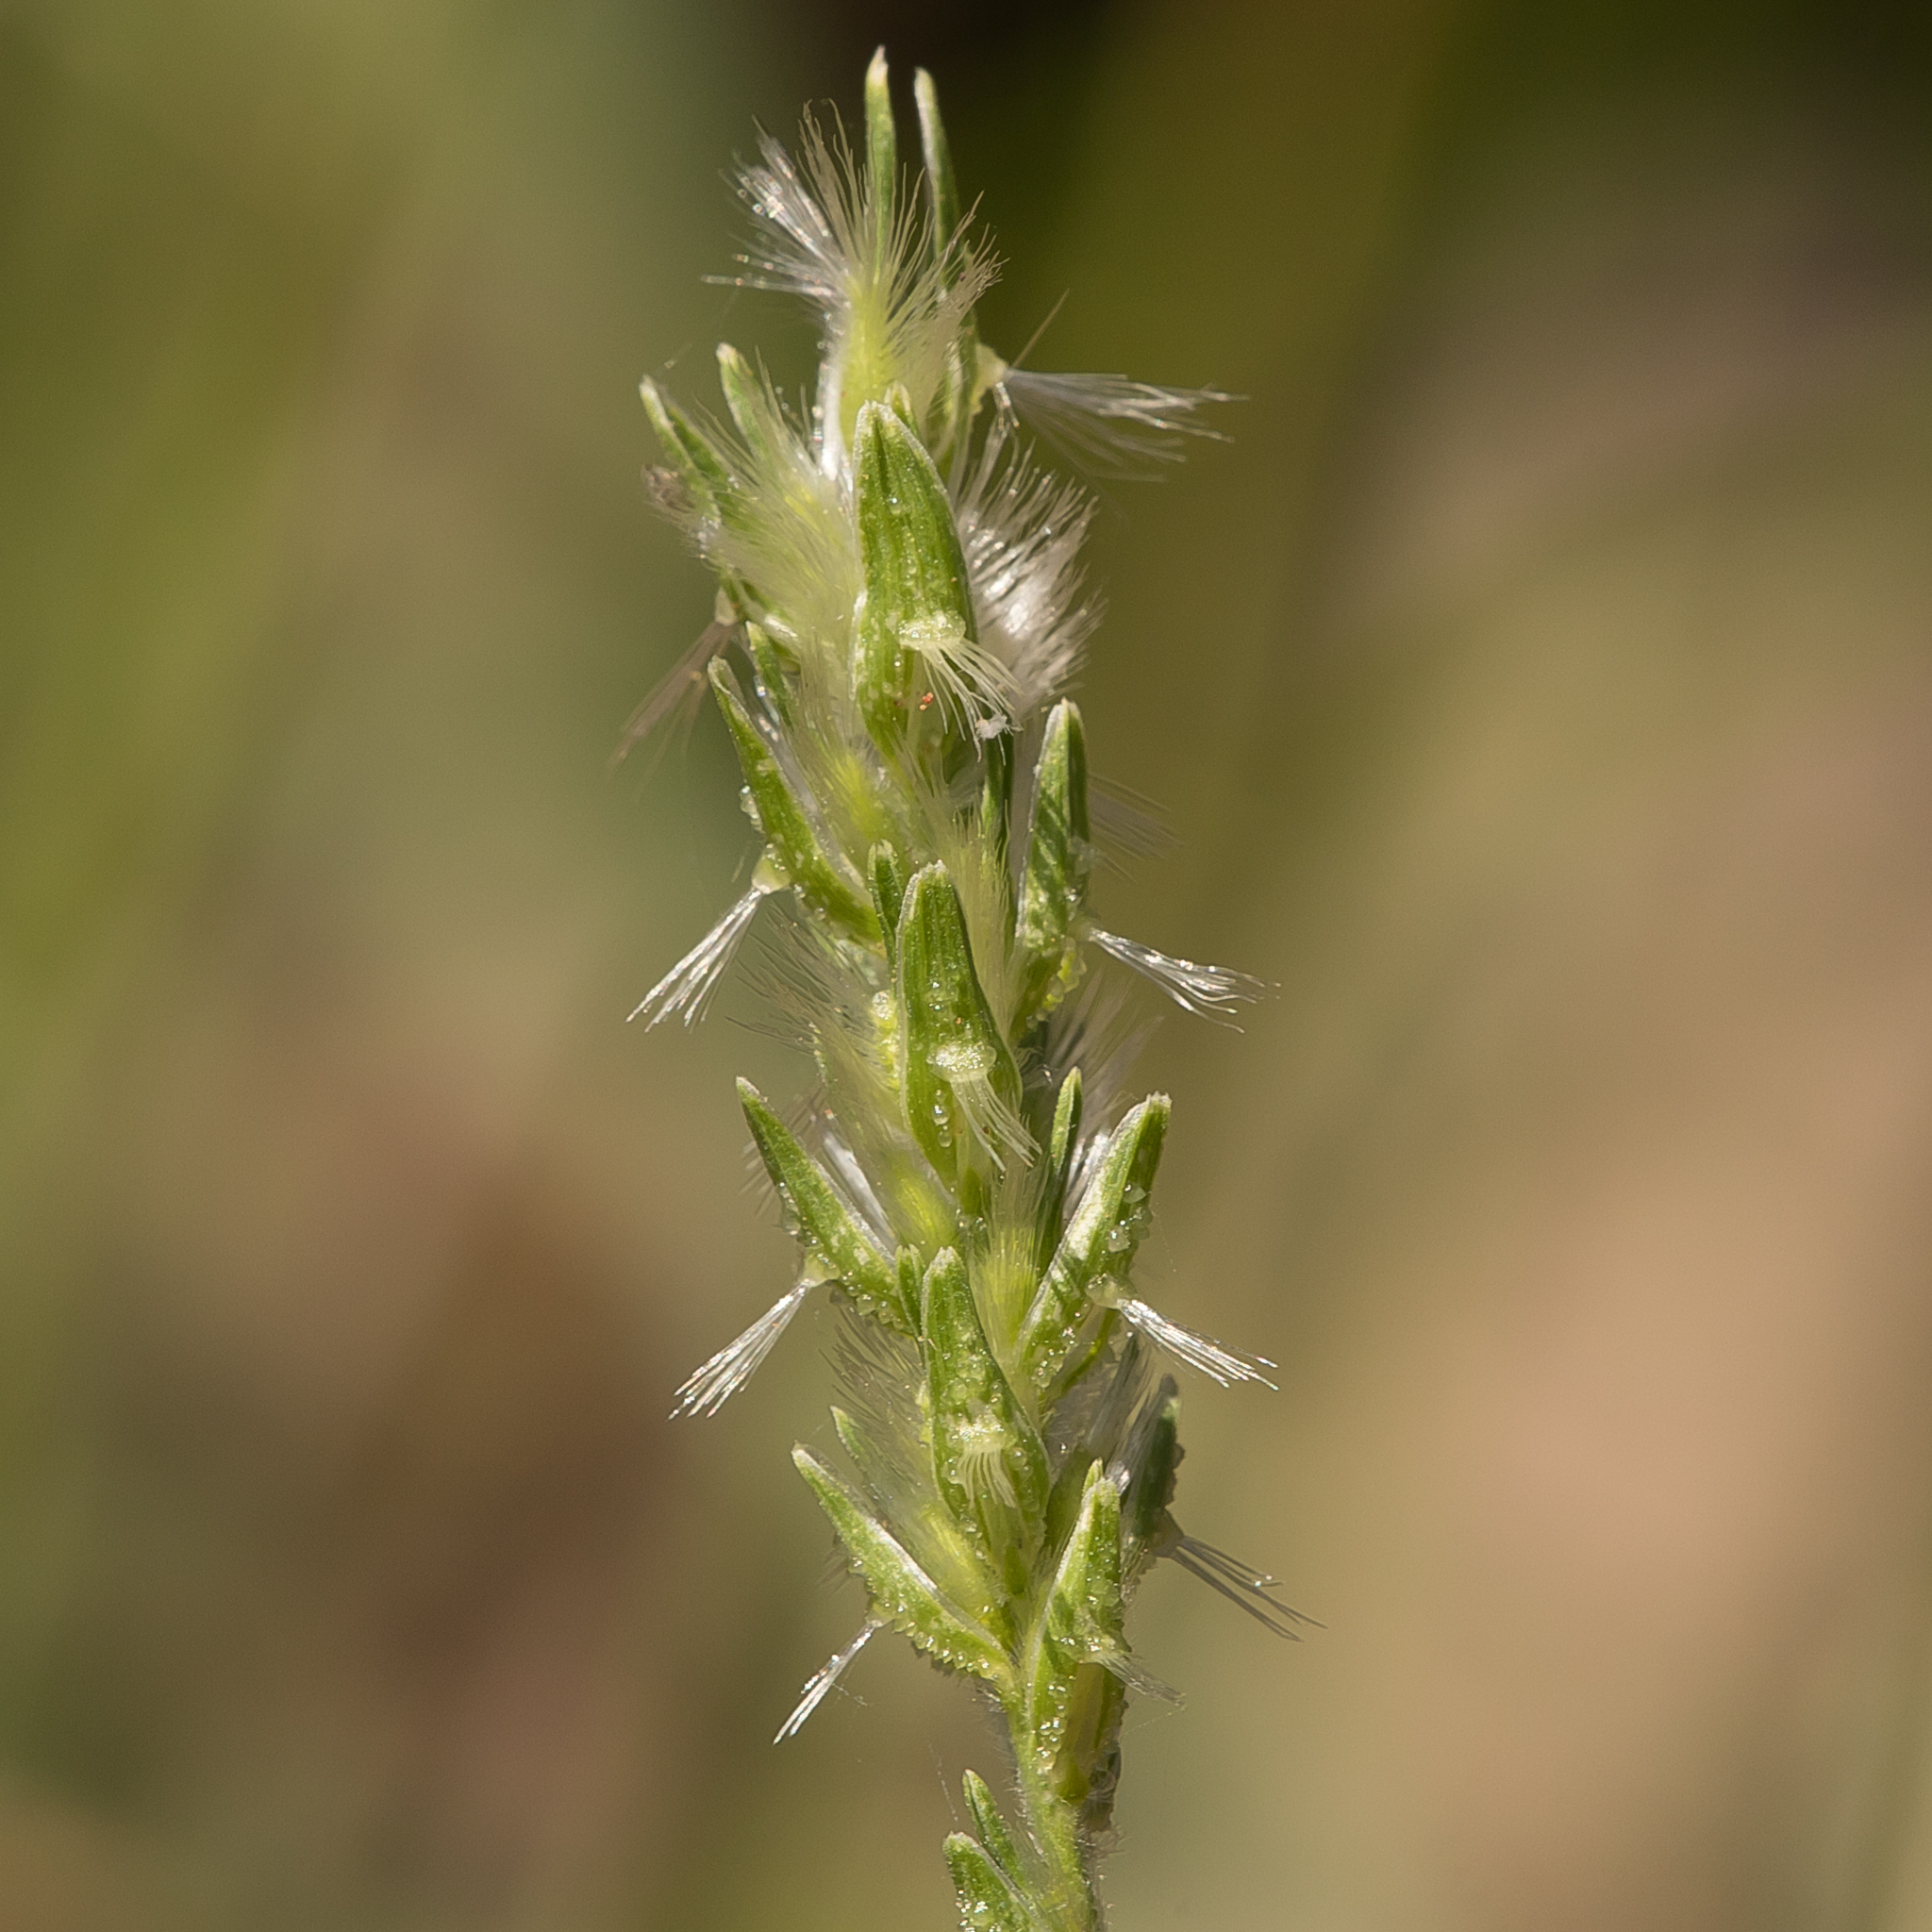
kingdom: Plantae
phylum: Tracheophyta
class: Liliopsida
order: Poales
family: Poaceae
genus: Thyridolepis
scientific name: Thyridolepis mitchelliana
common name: Rock tassel grass
